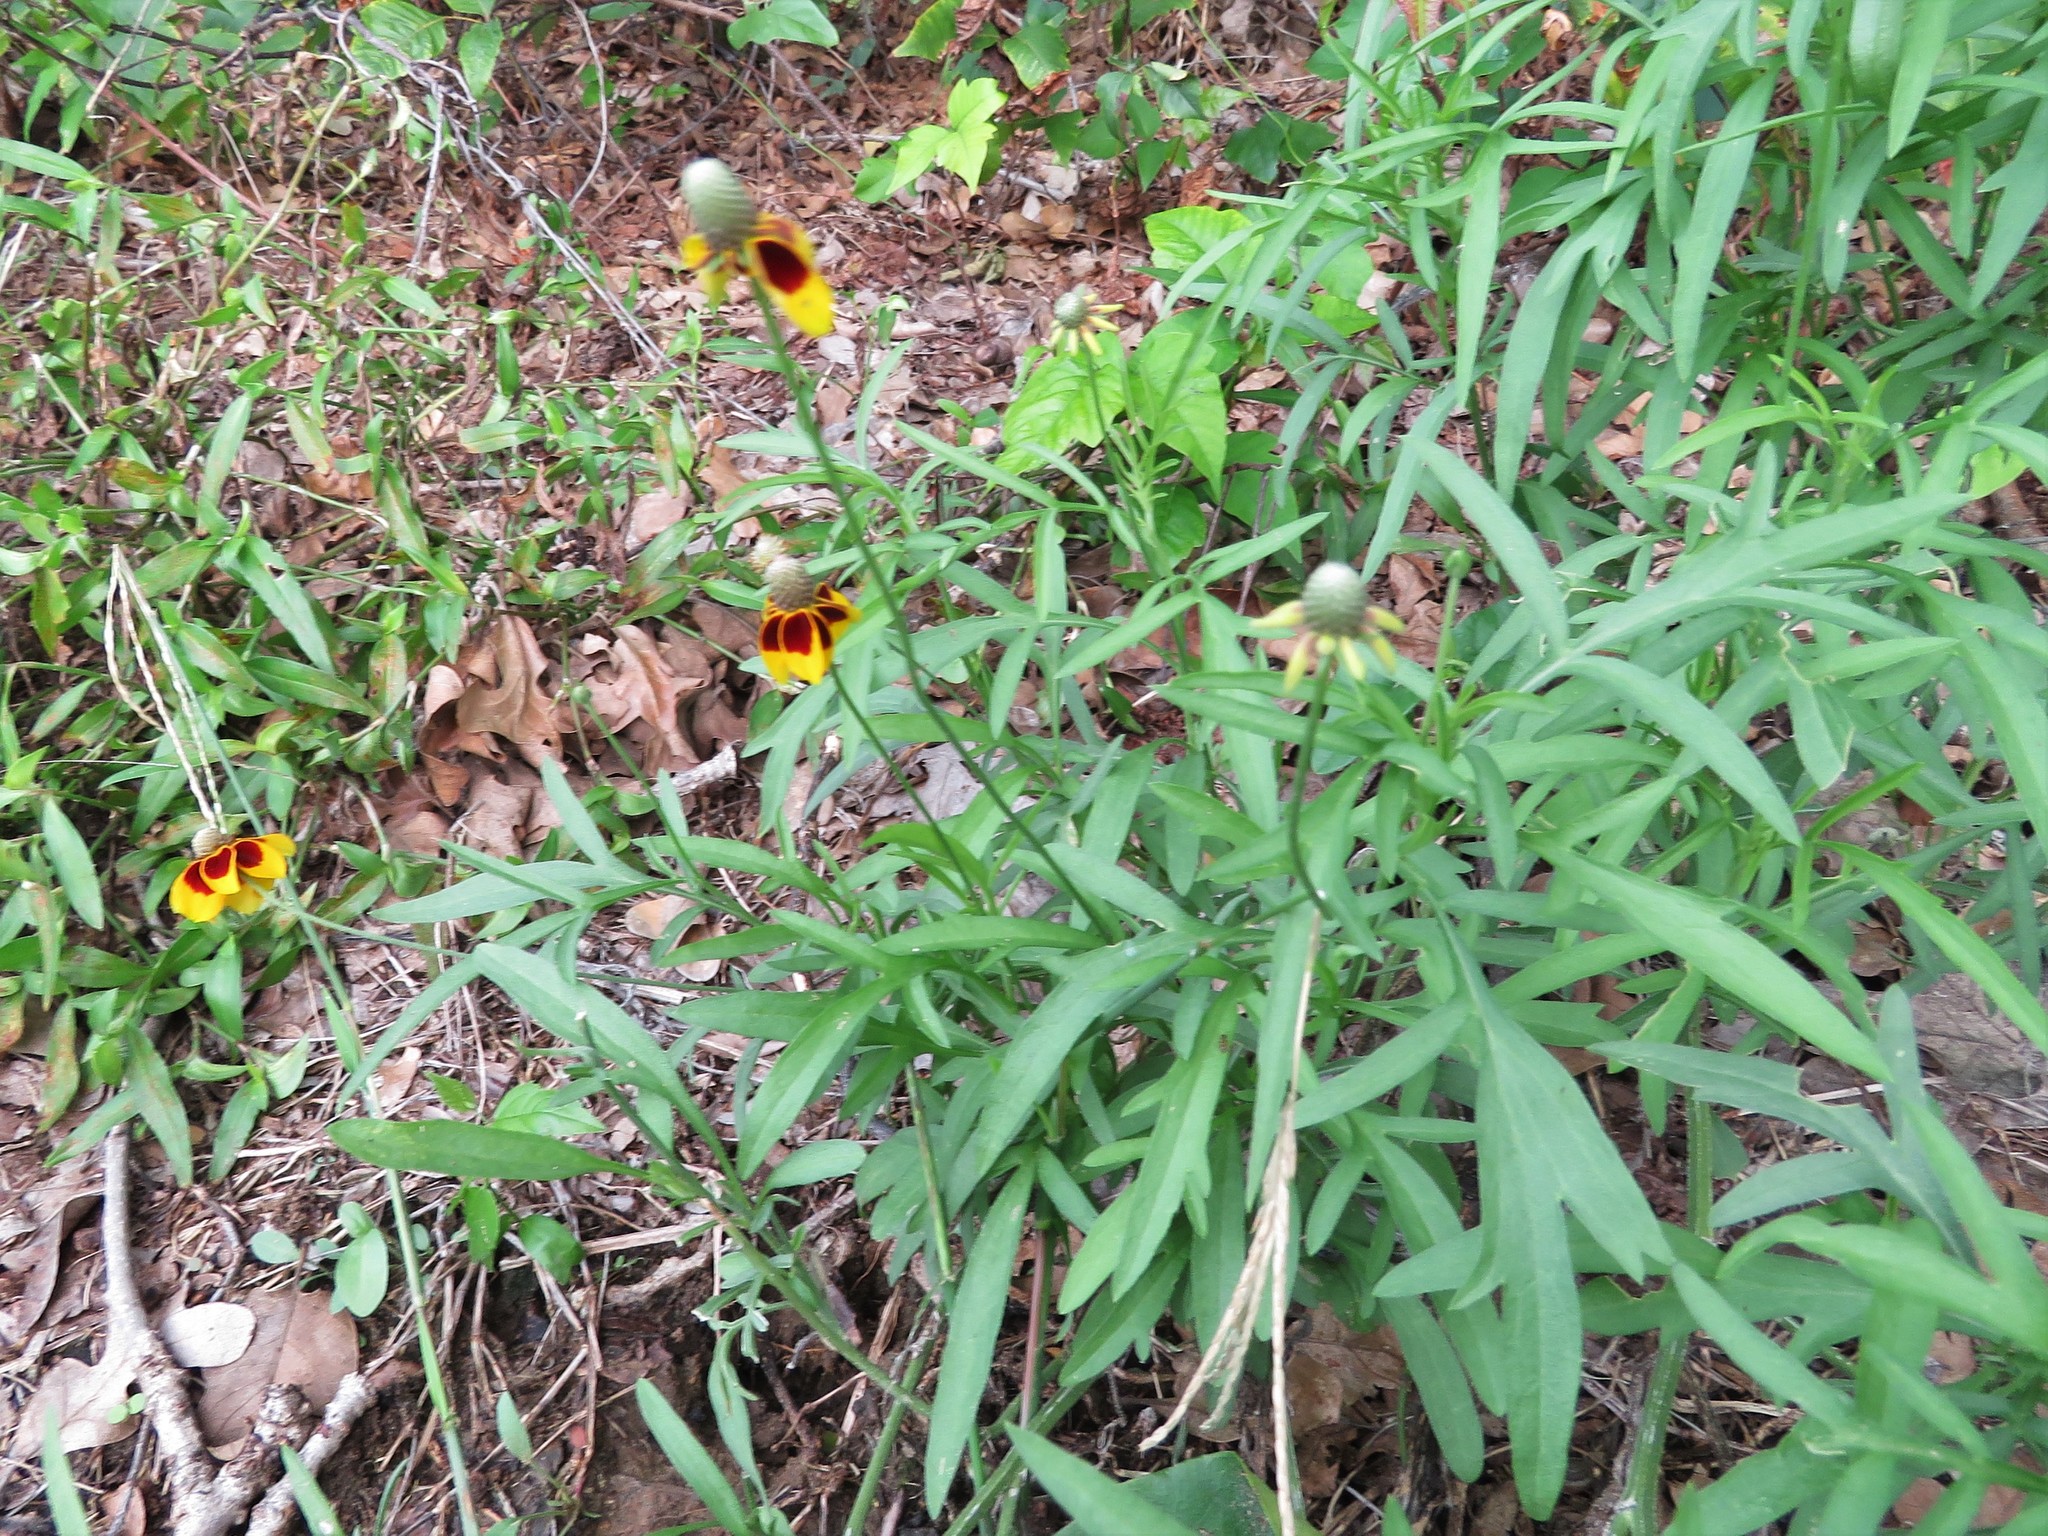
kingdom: Plantae
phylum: Tracheophyta
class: Magnoliopsida
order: Asterales
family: Asteraceae
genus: Ratibida
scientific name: Ratibida columnifera
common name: Prairie coneflower
